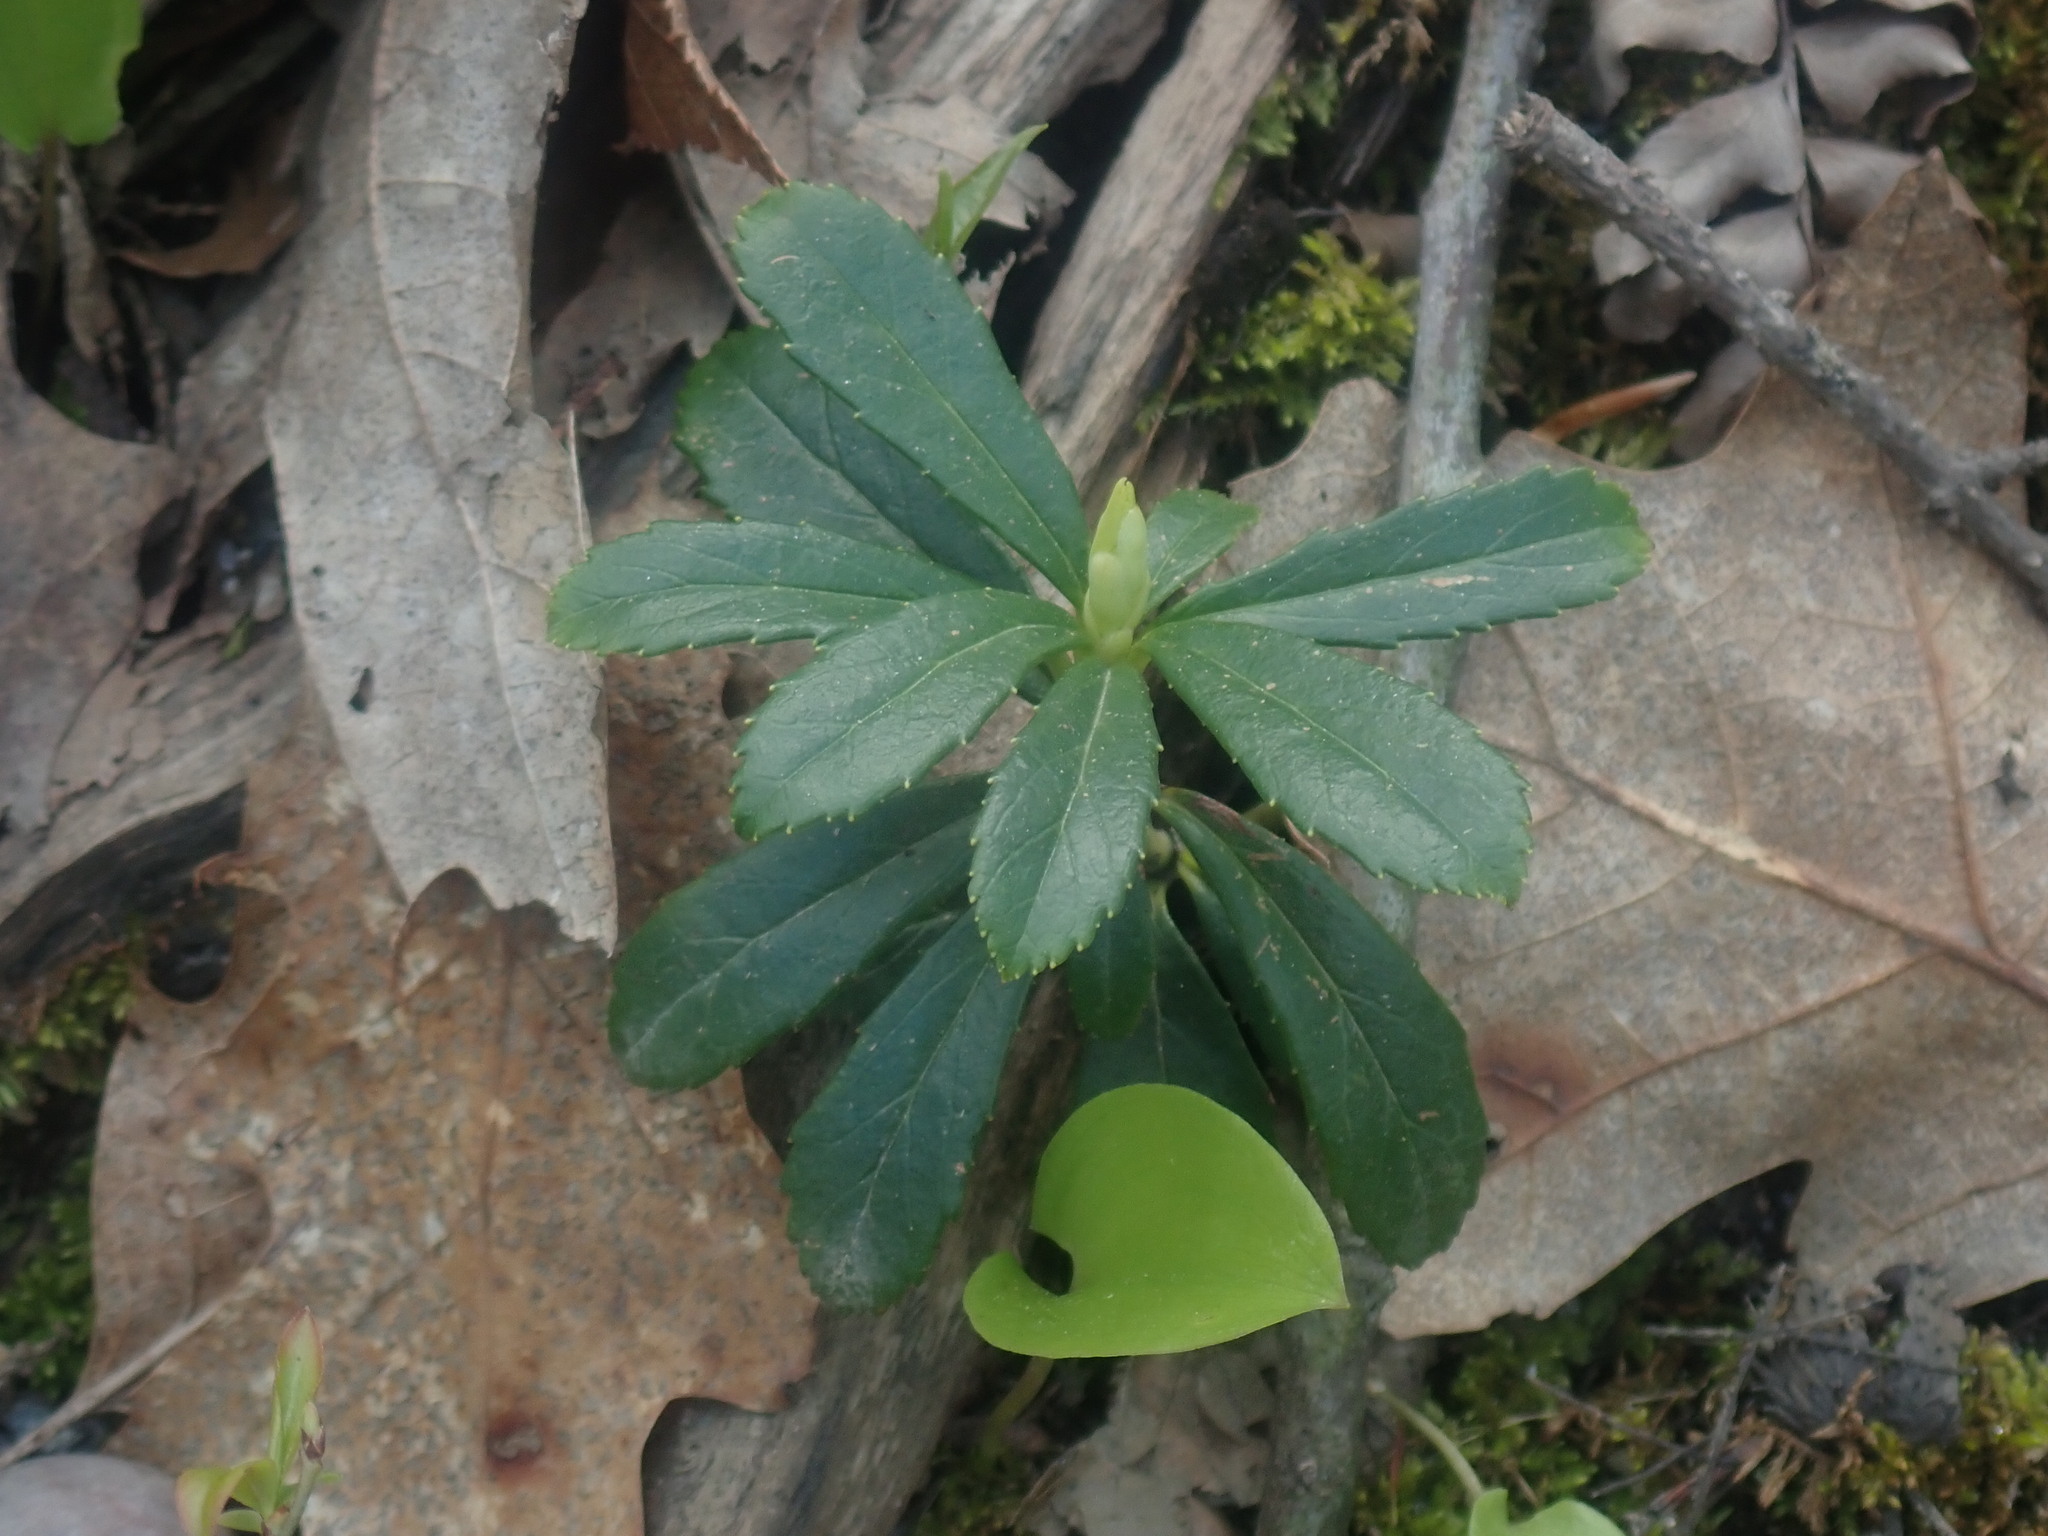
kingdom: Plantae
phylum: Tracheophyta
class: Magnoliopsida
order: Ericales
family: Ericaceae
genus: Chimaphila
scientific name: Chimaphila umbellata
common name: Pipsissewa
